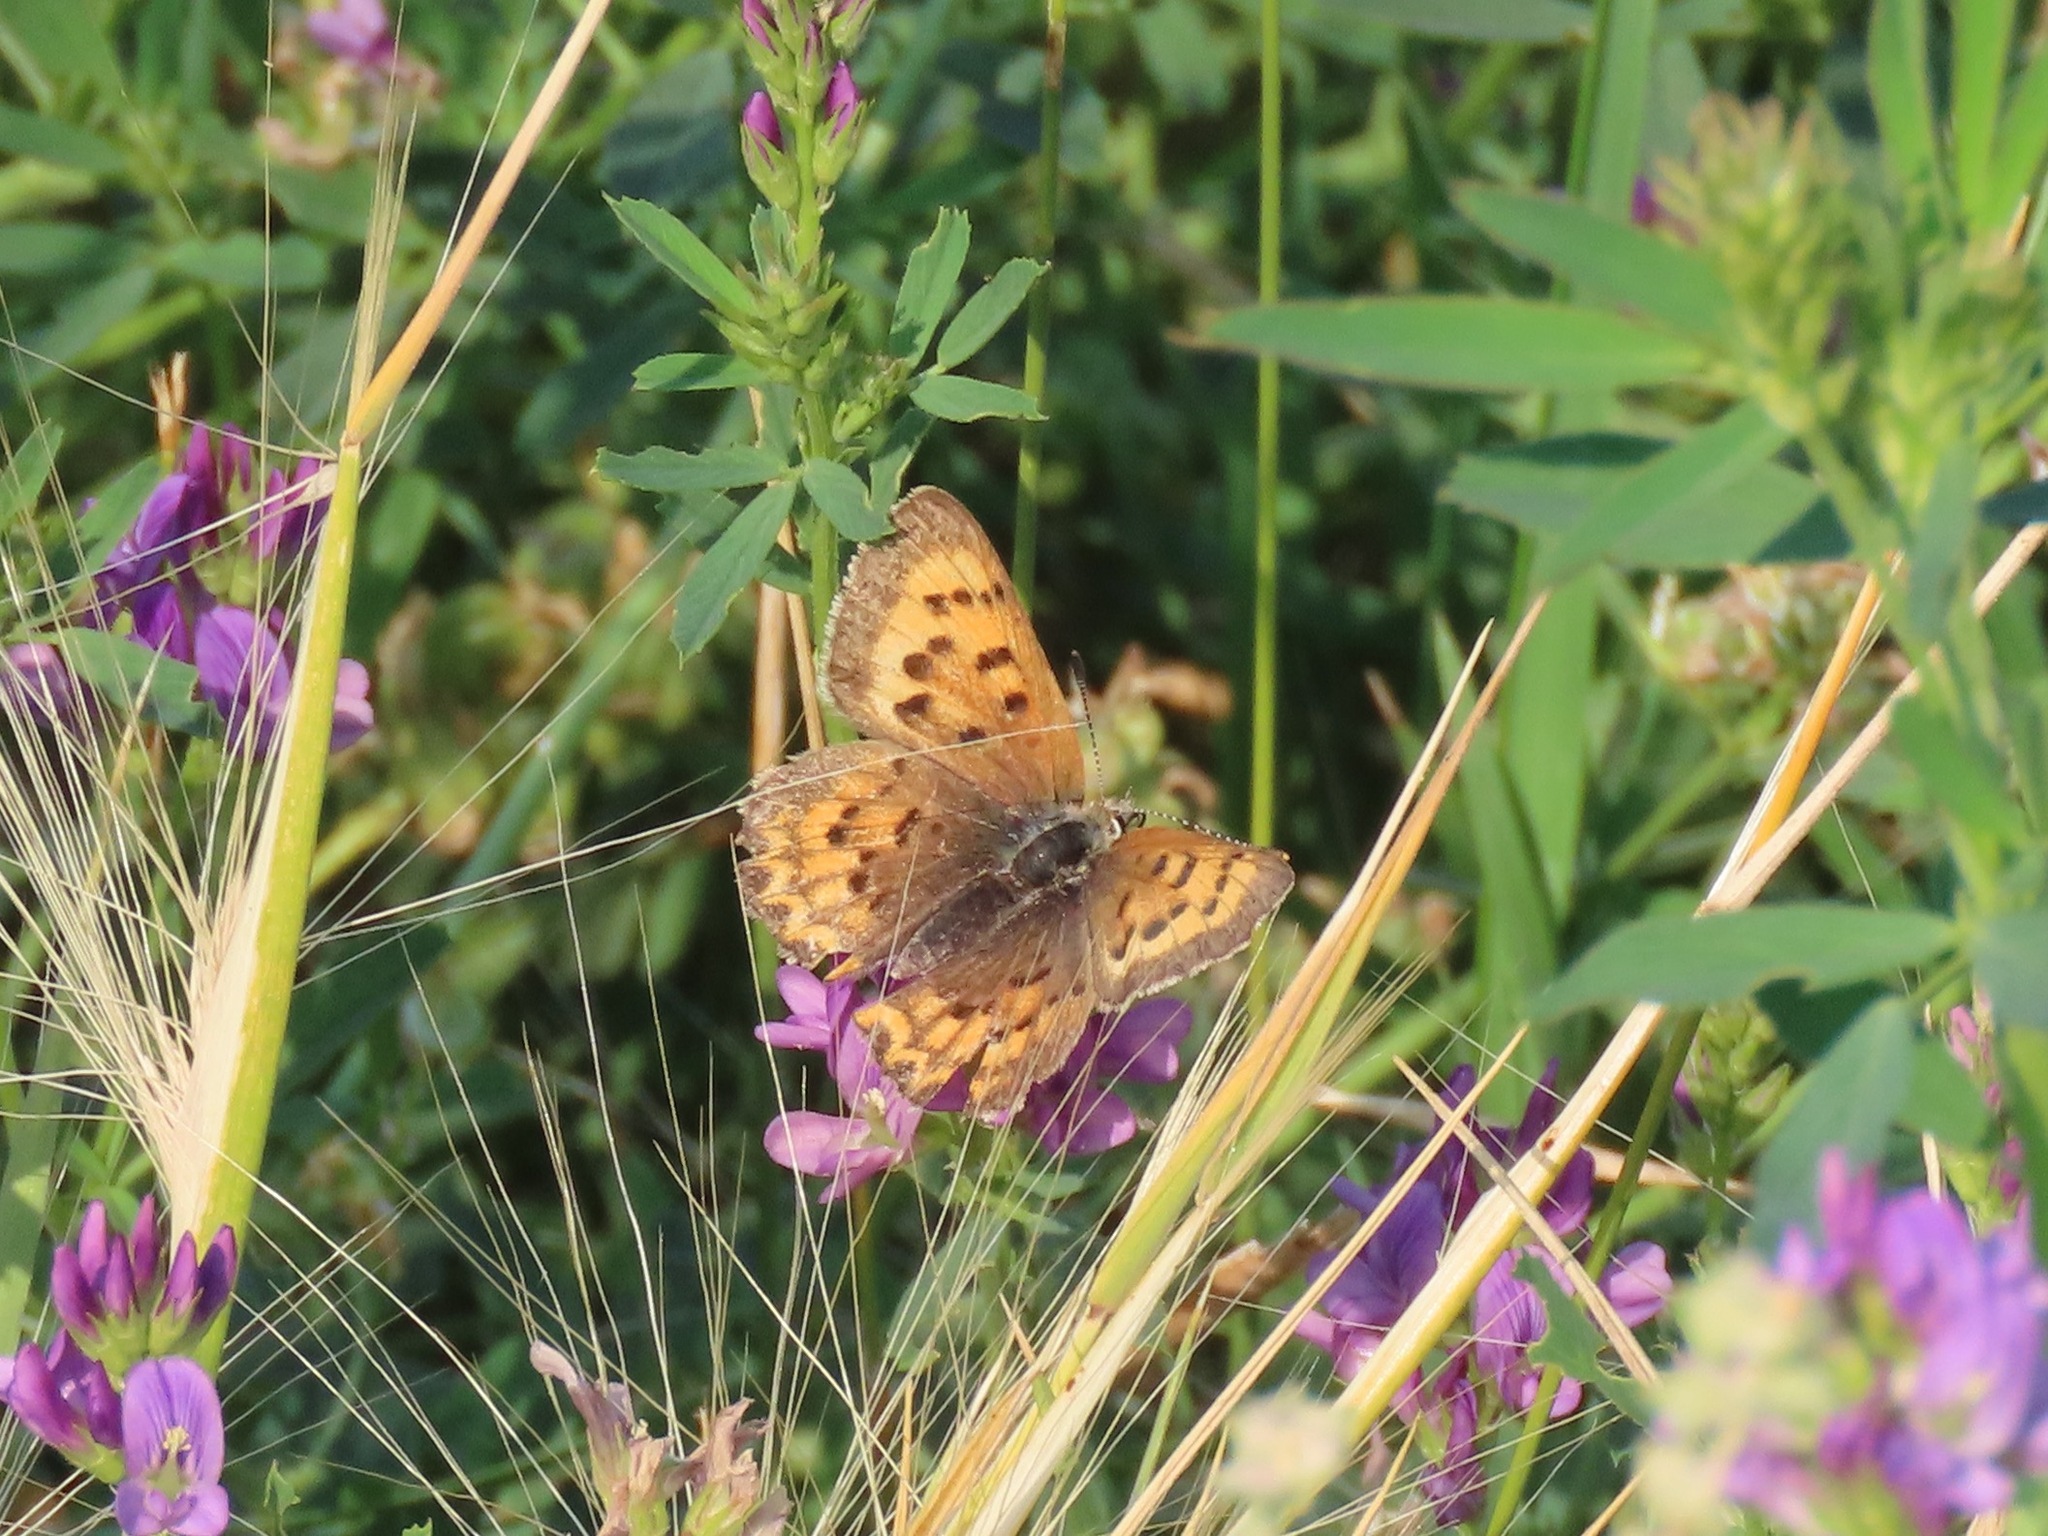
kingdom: Animalia
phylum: Arthropoda
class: Insecta
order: Lepidoptera
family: Lycaenidae
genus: Tharsalea
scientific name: Tharsalea helloides
